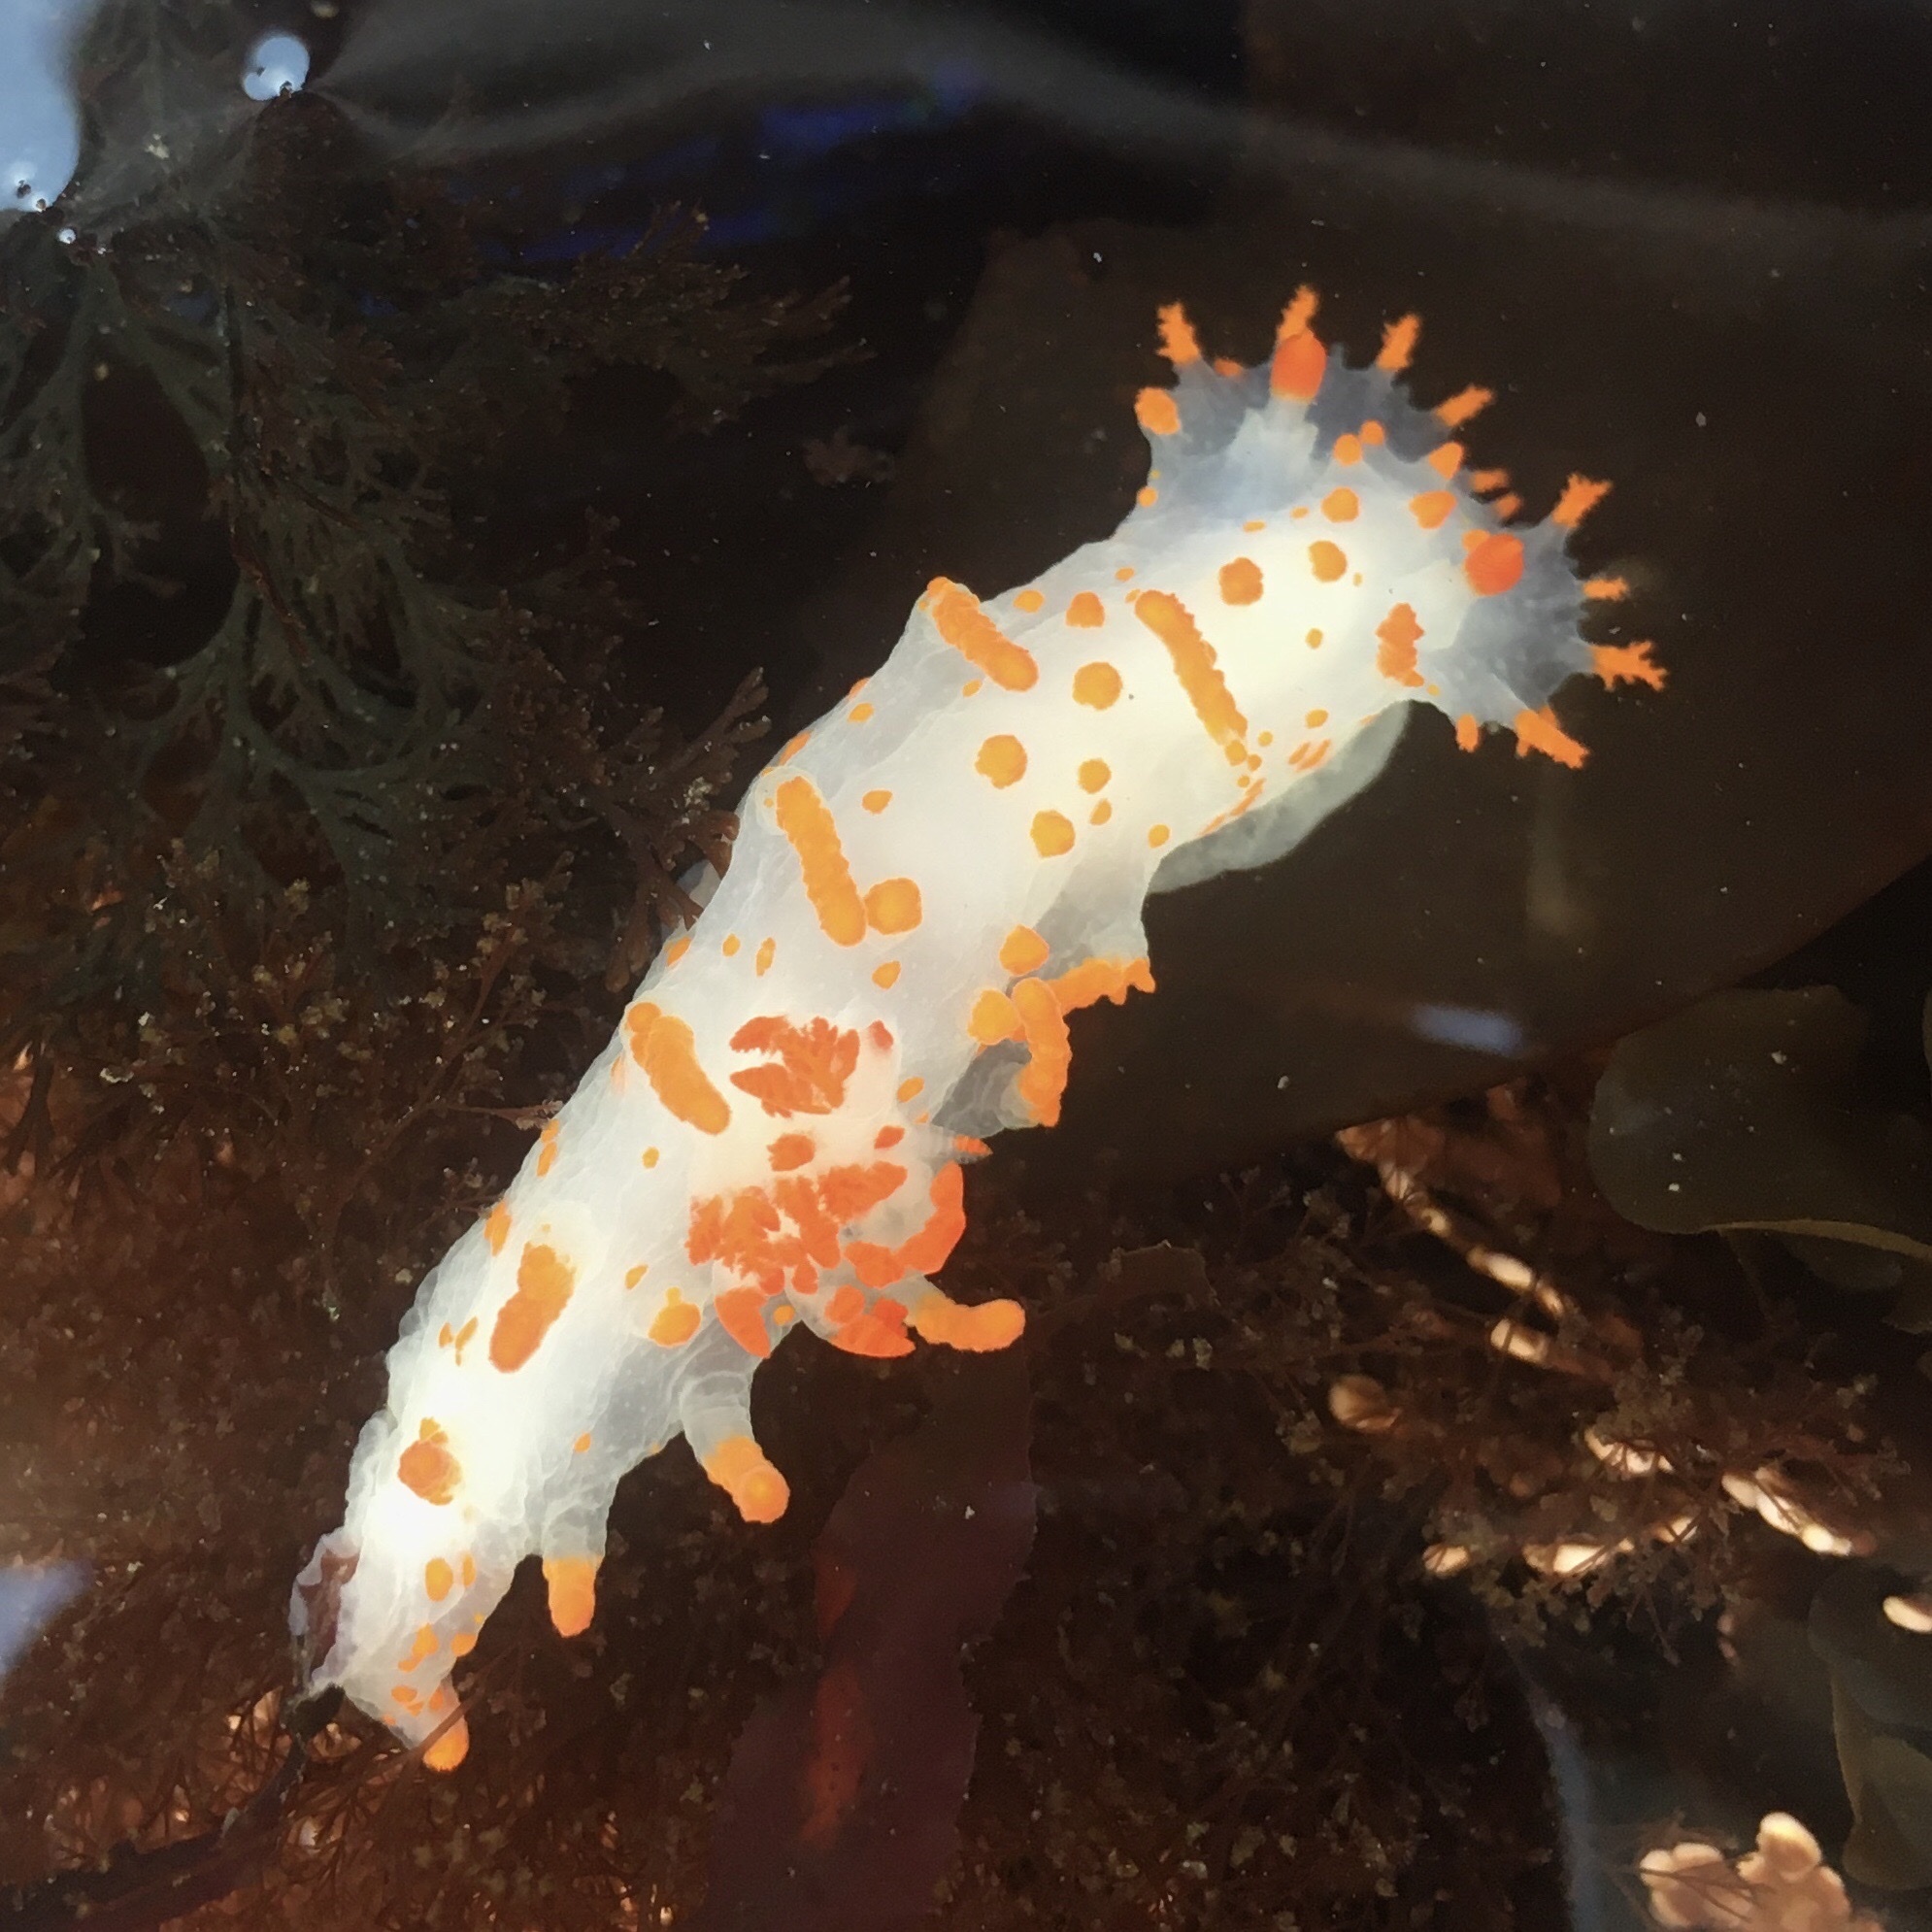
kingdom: Animalia
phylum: Mollusca
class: Gastropoda
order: Nudibranchia
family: Polyceridae
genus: Triopha
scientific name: Triopha catalinae
